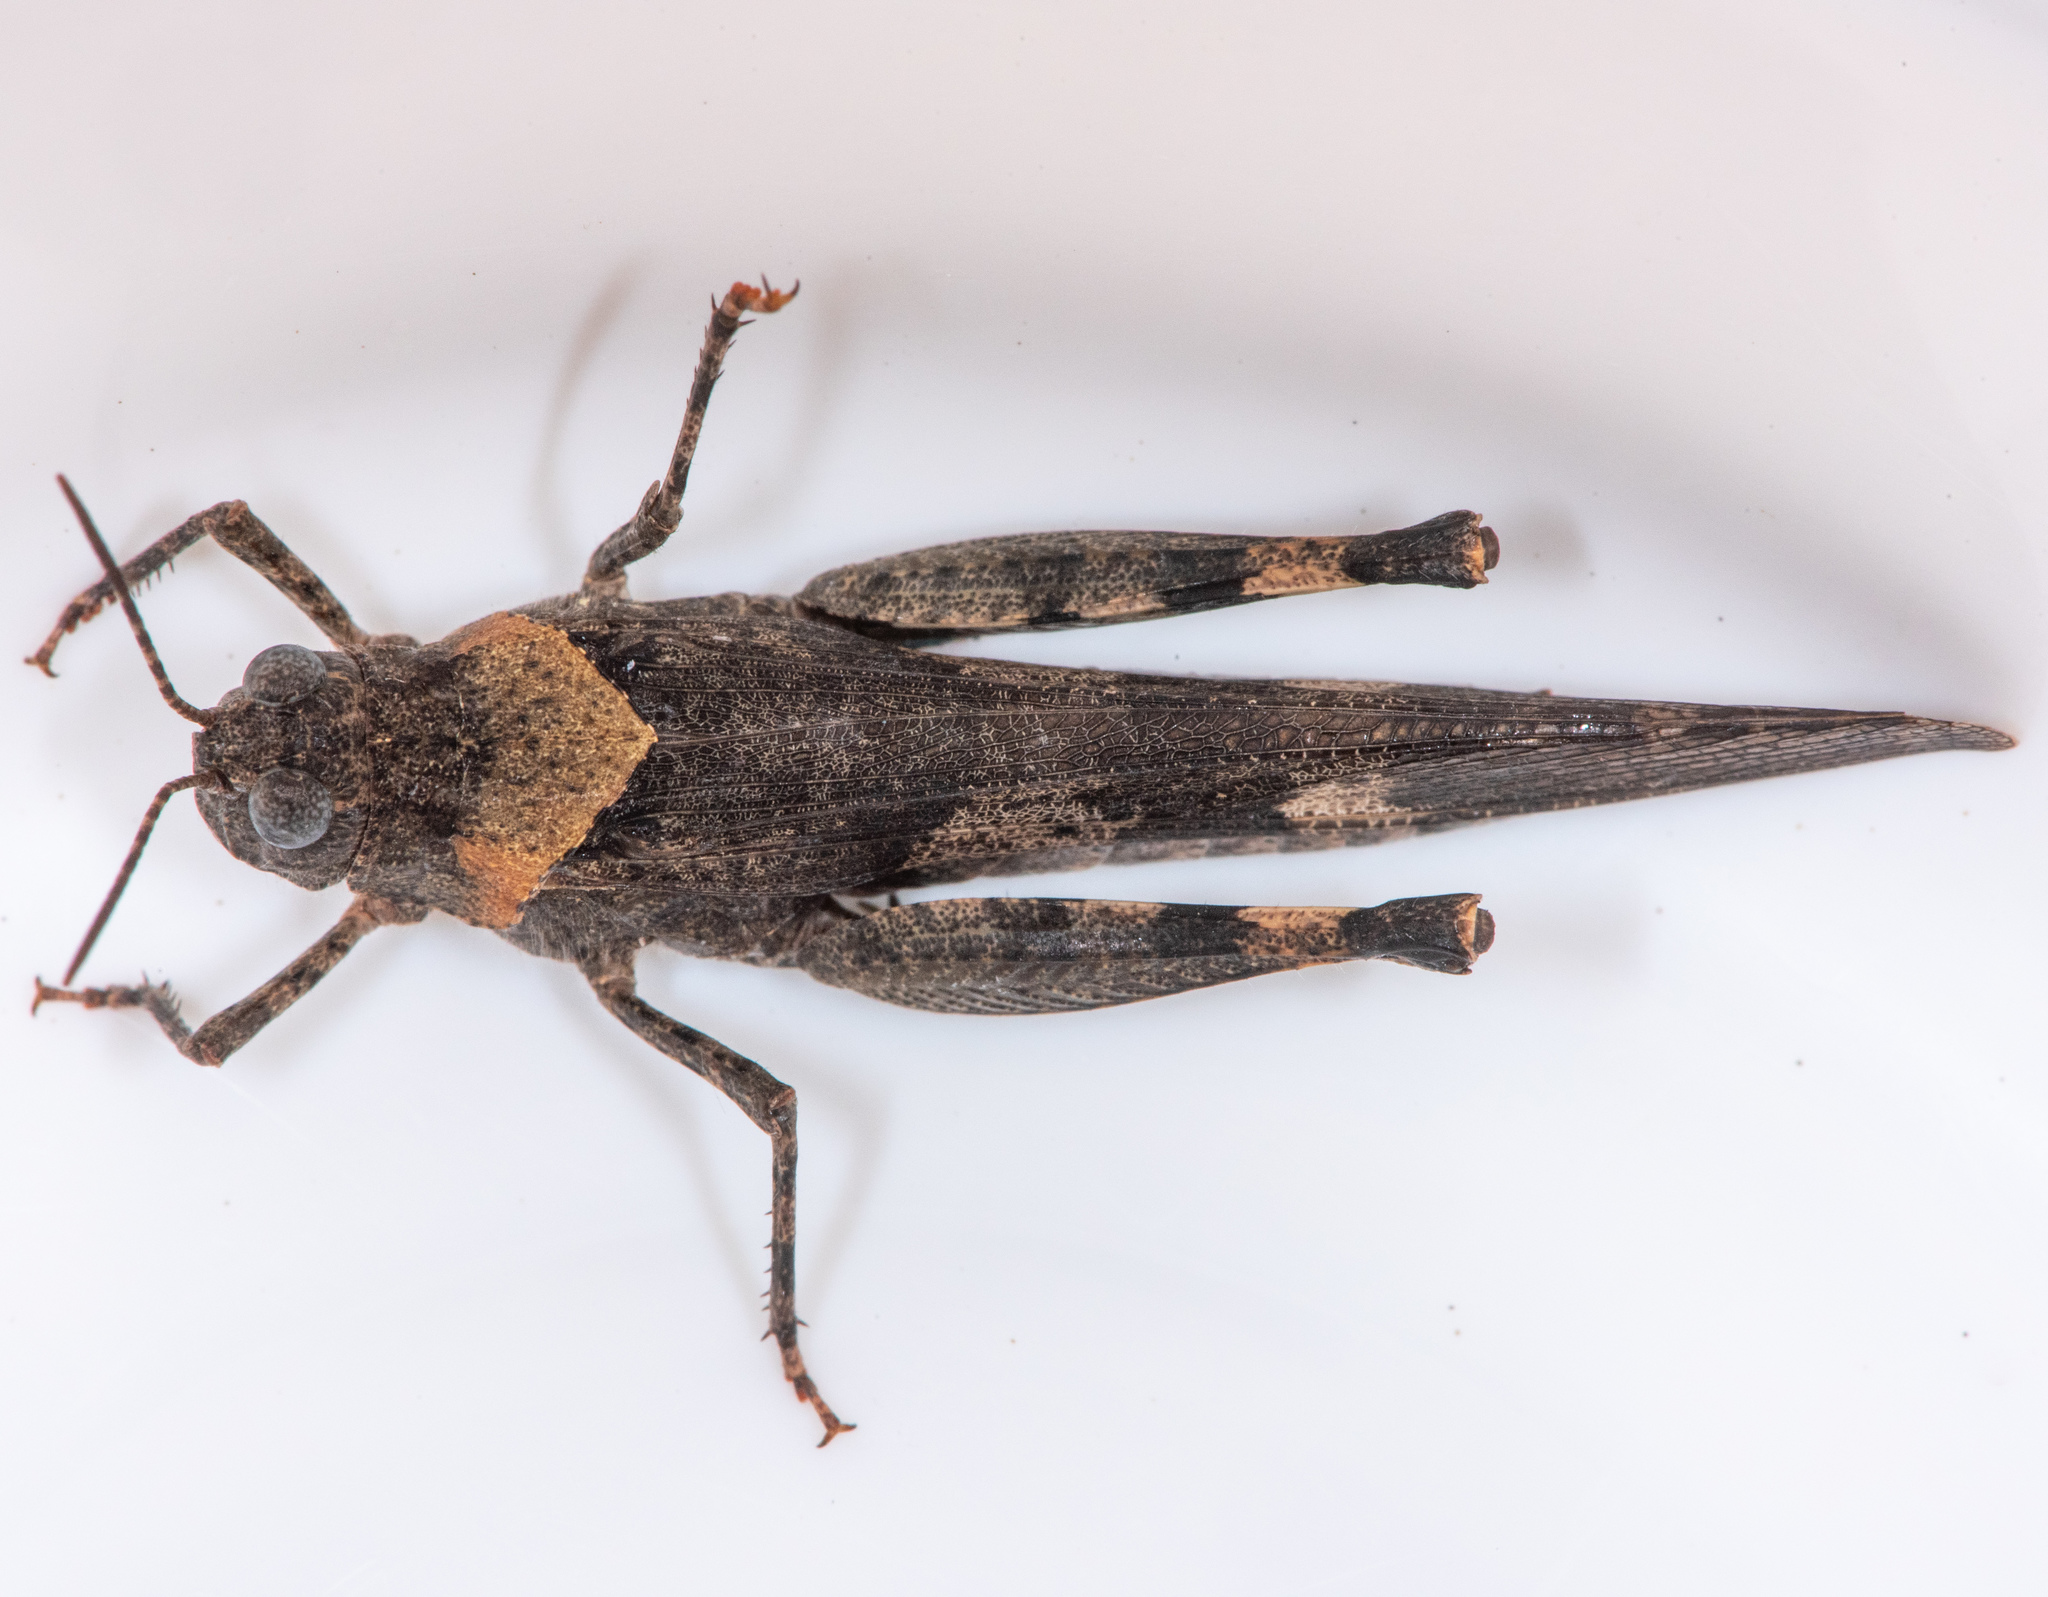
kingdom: Animalia
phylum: Arthropoda
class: Insecta
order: Orthoptera
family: Acrididae
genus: Trimerotropis
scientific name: Trimerotropis fontana
